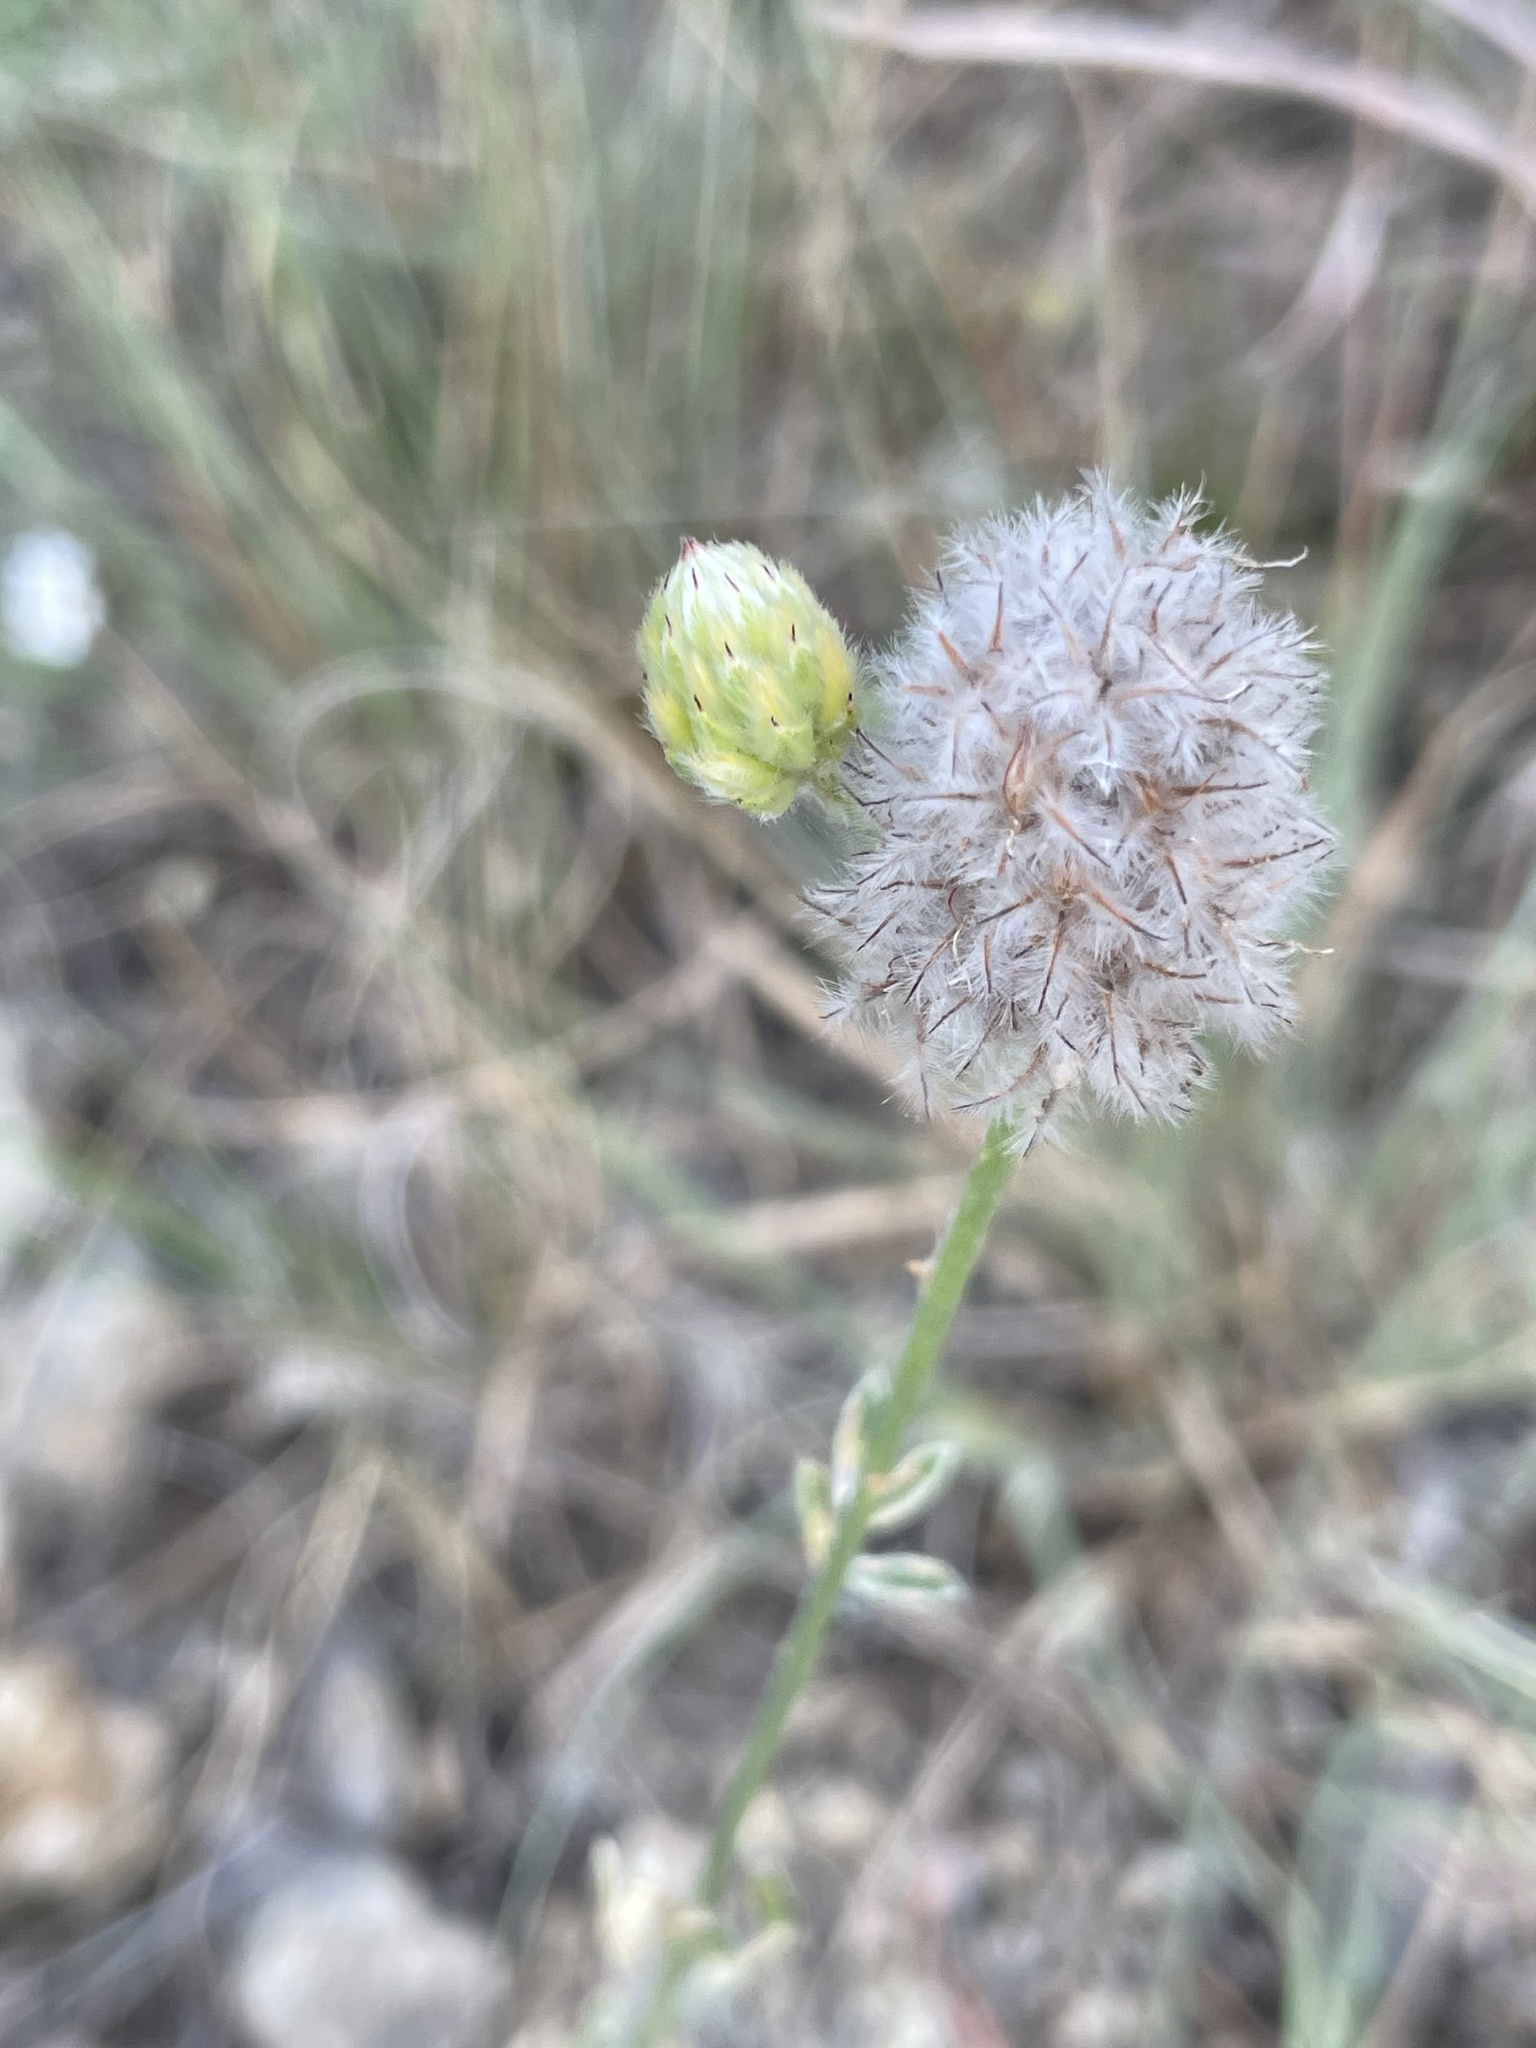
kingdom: Plantae
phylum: Tracheophyta
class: Magnoliopsida
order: Fabales
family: Fabaceae
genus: Dalea
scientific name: Dalea aurea
